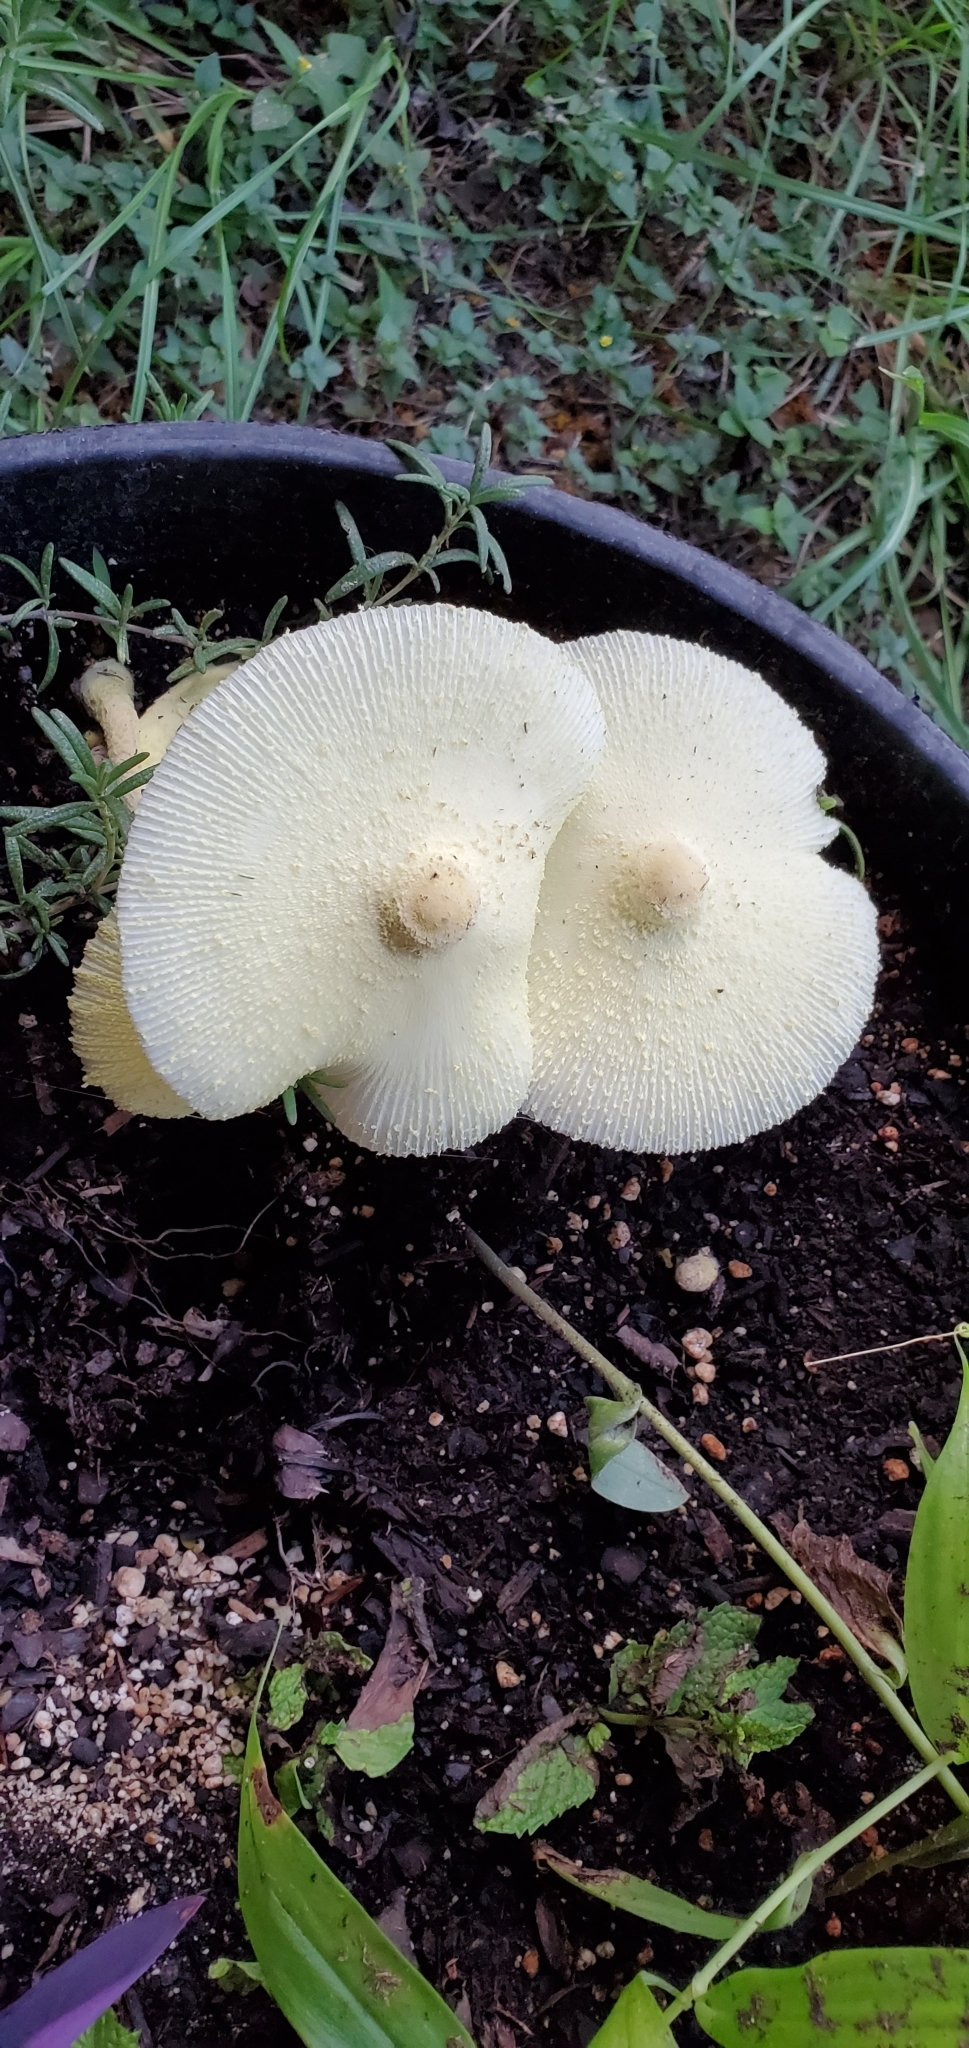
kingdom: Fungi
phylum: Basidiomycota
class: Agaricomycetes
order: Agaricales
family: Agaricaceae
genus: Leucocoprinus
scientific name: Leucocoprinus birnbaumii
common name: Plantpot dapperling
